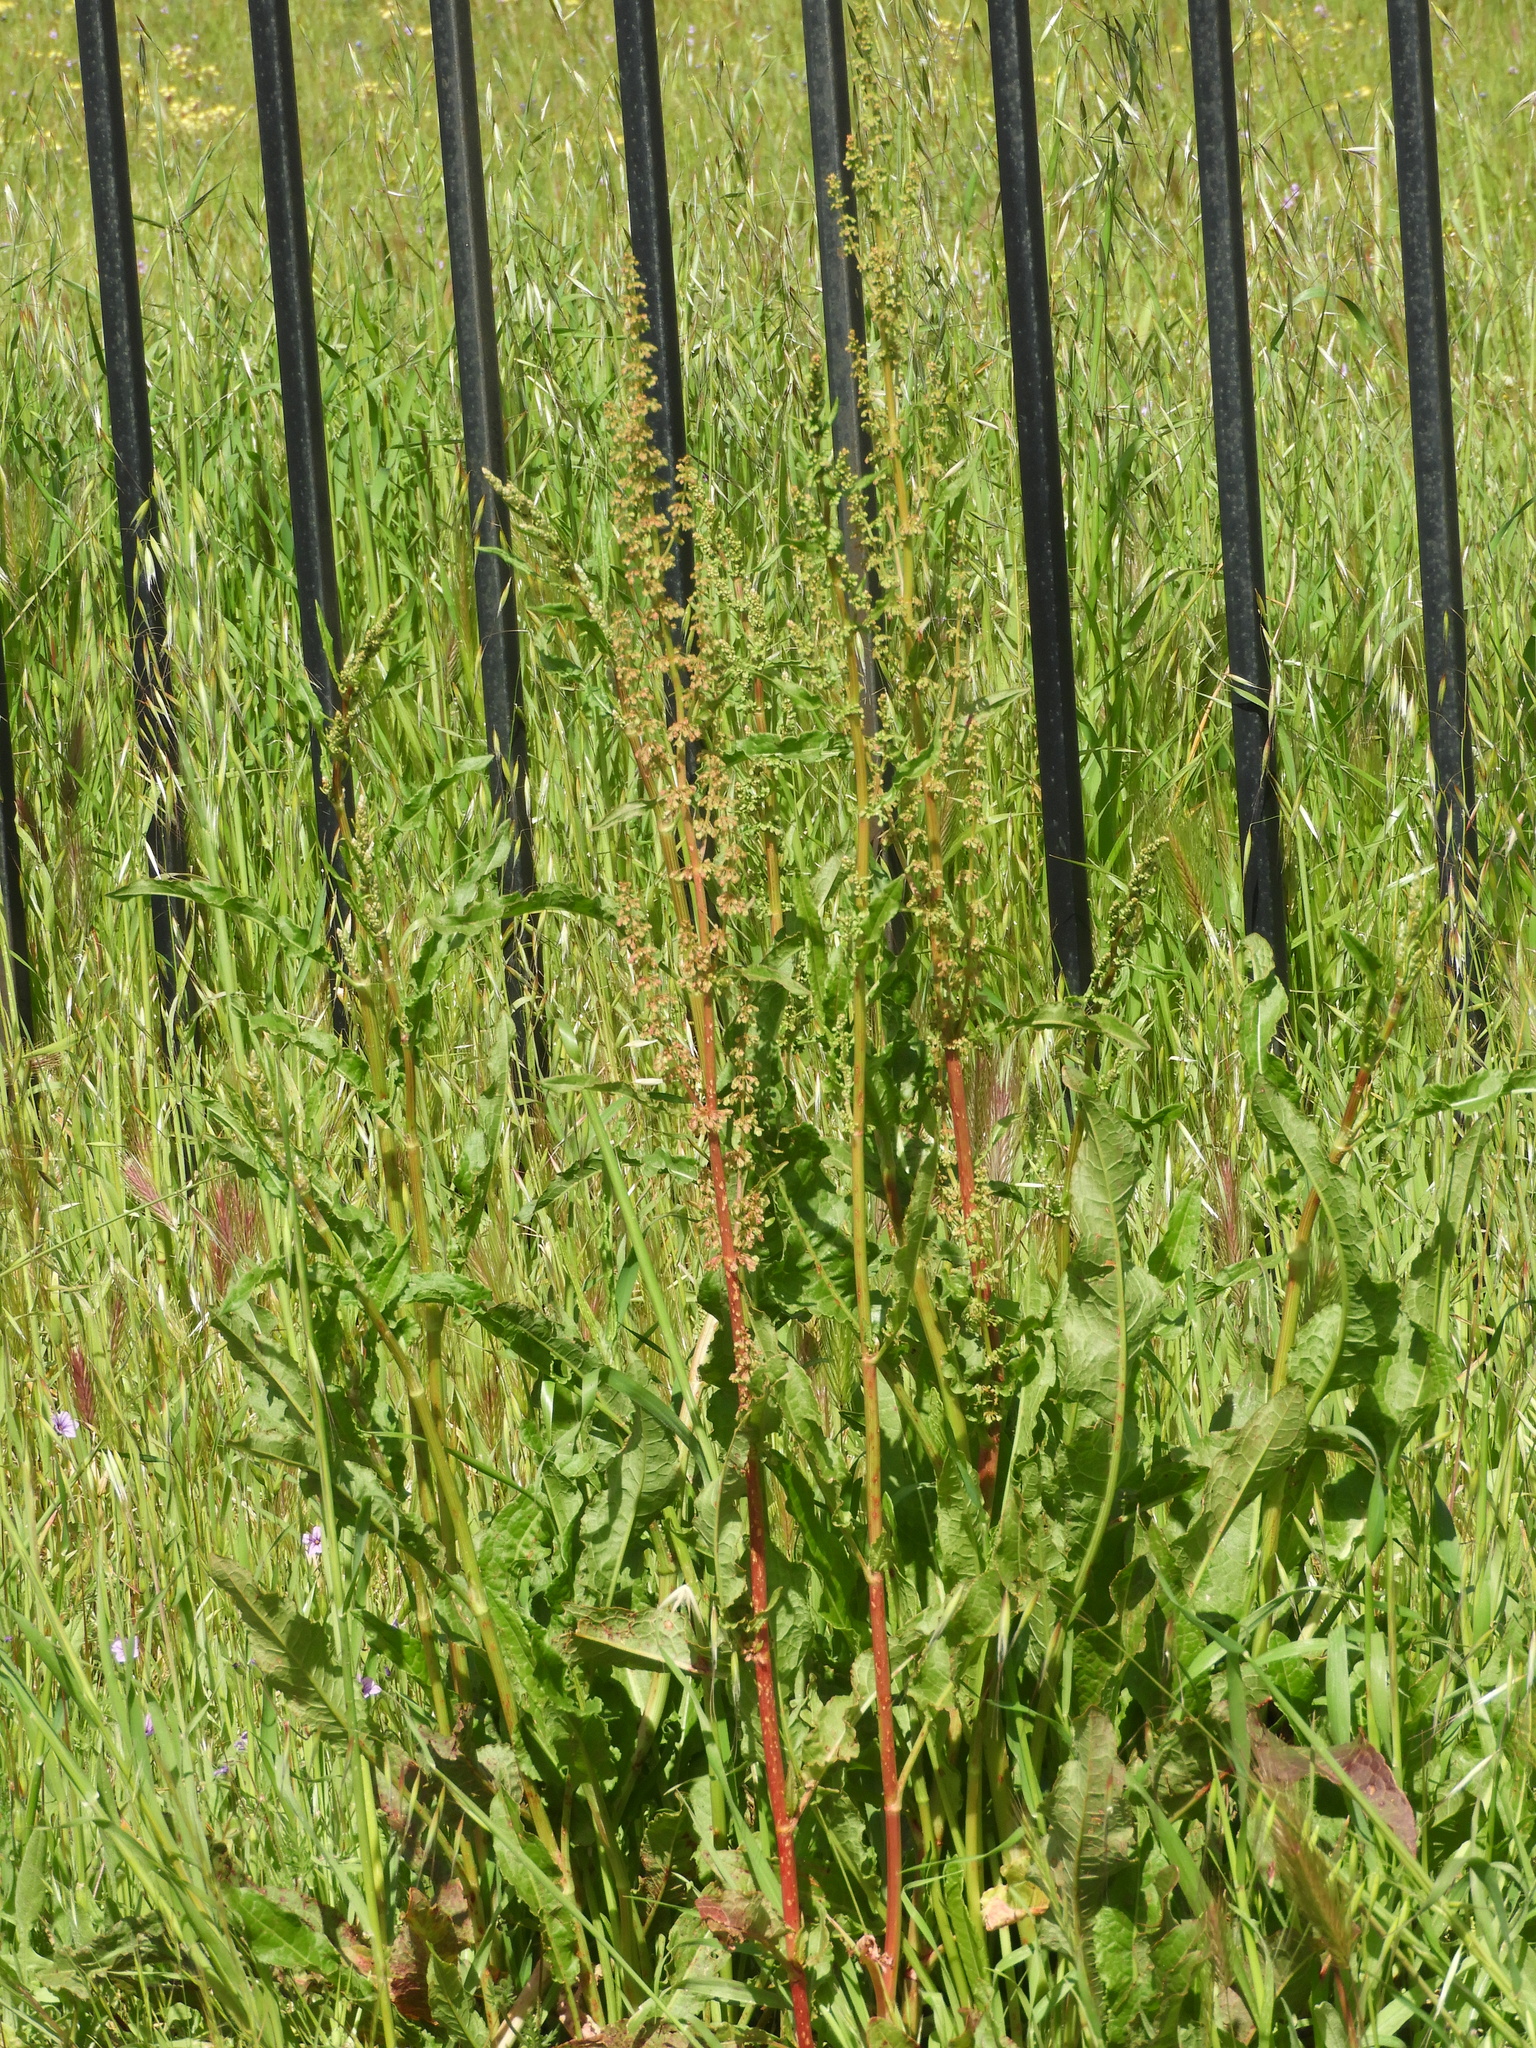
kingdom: Plantae
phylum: Tracheophyta
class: Magnoliopsida
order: Caryophyllales
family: Polygonaceae
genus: Rumex
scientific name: Rumex crispus
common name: Curled dock
